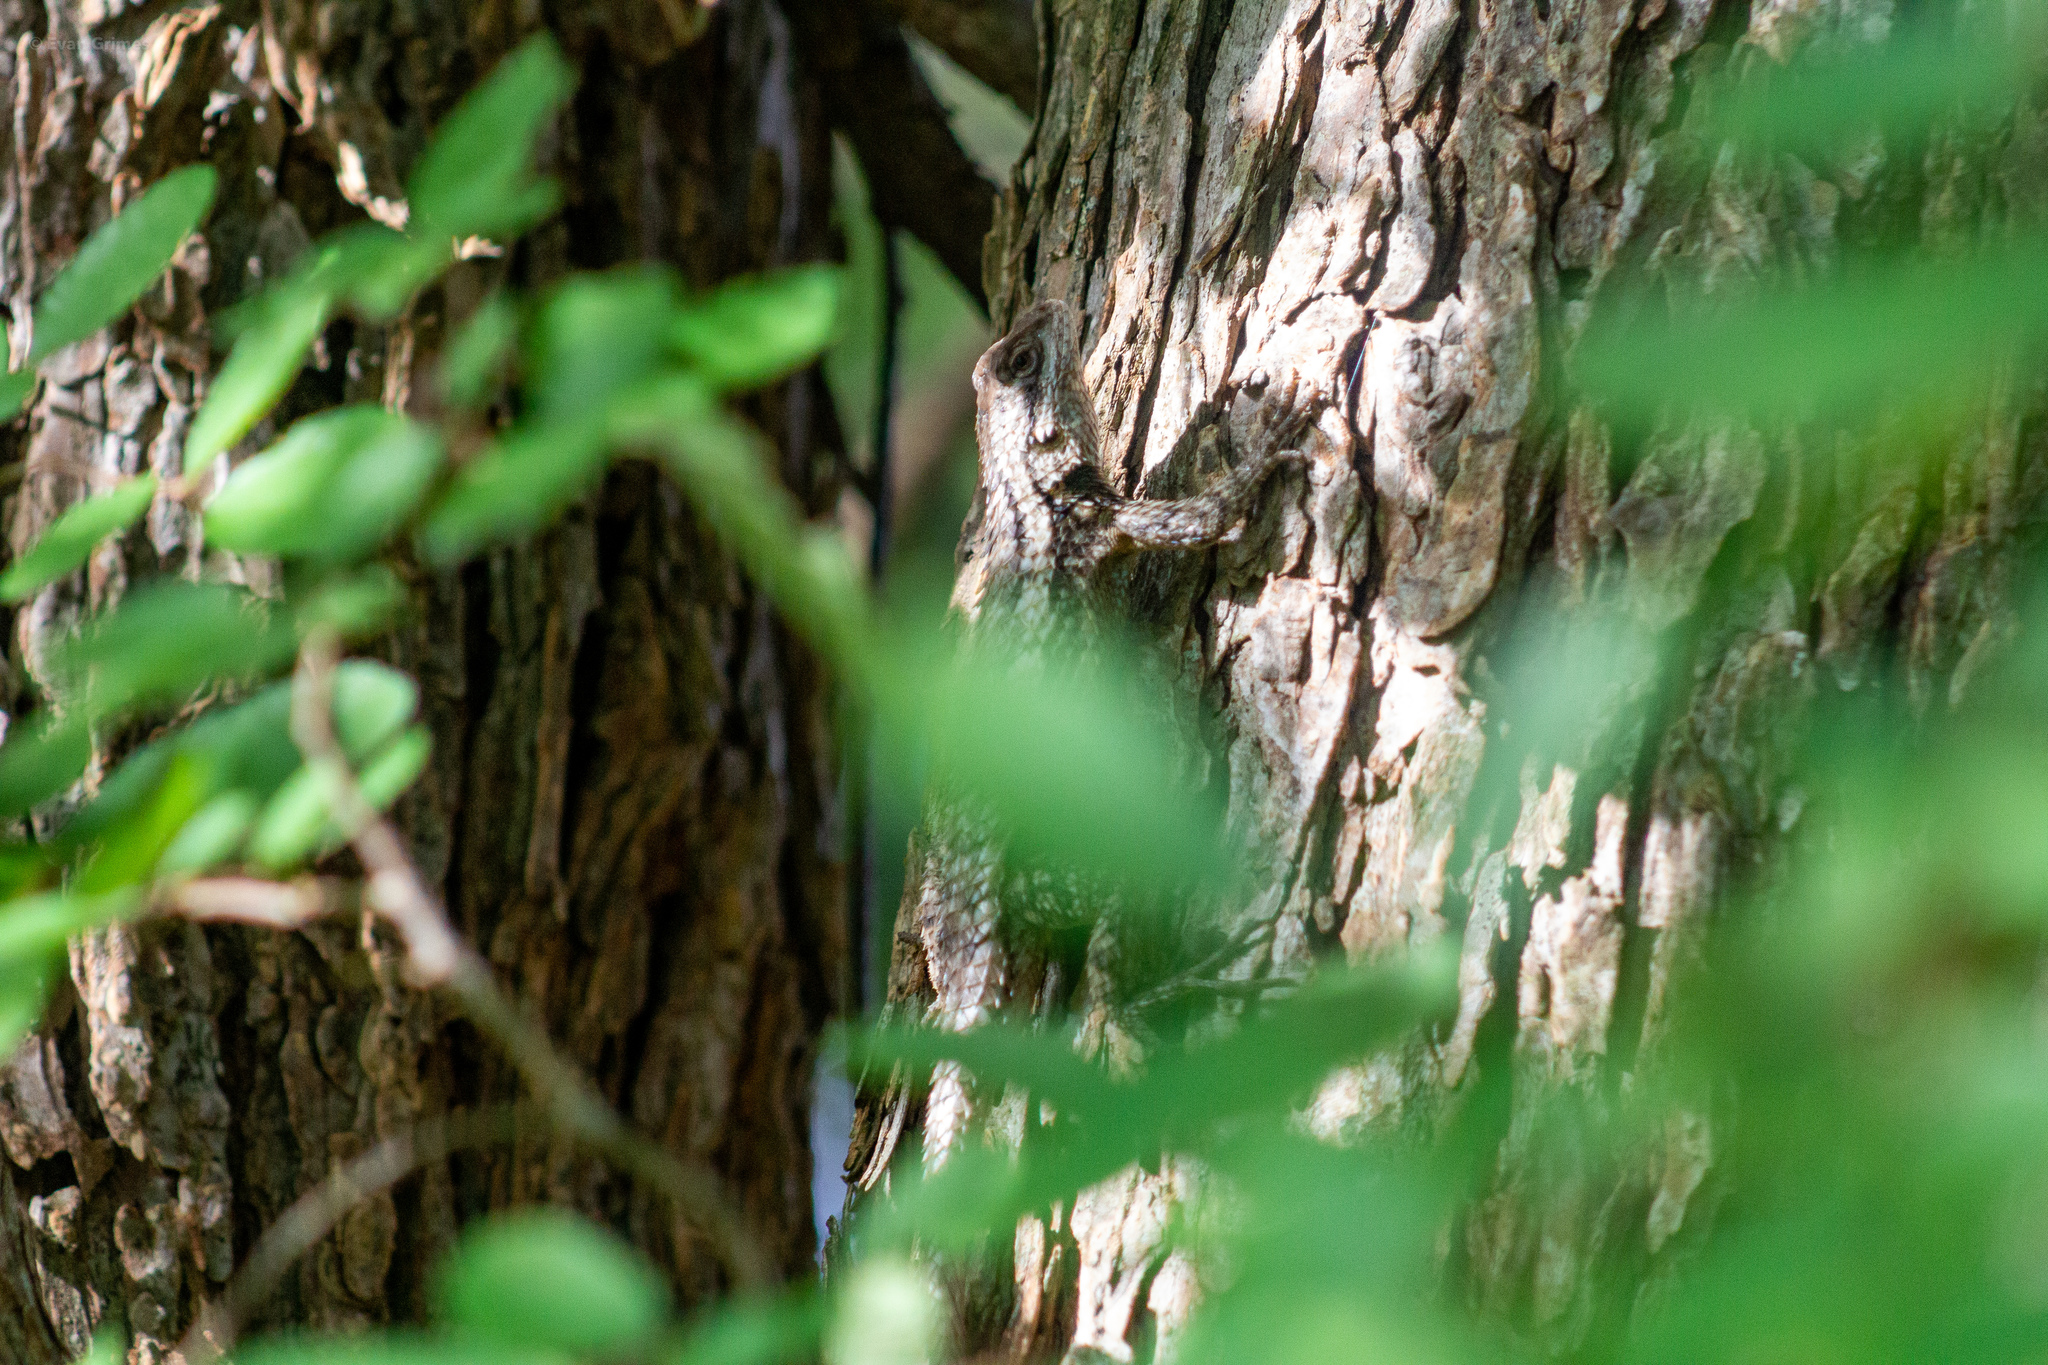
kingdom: Animalia
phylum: Chordata
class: Squamata
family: Phrynosomatidae
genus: Sceloporus
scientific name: Sceloporus olivaceus
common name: Texas spiny lizard
